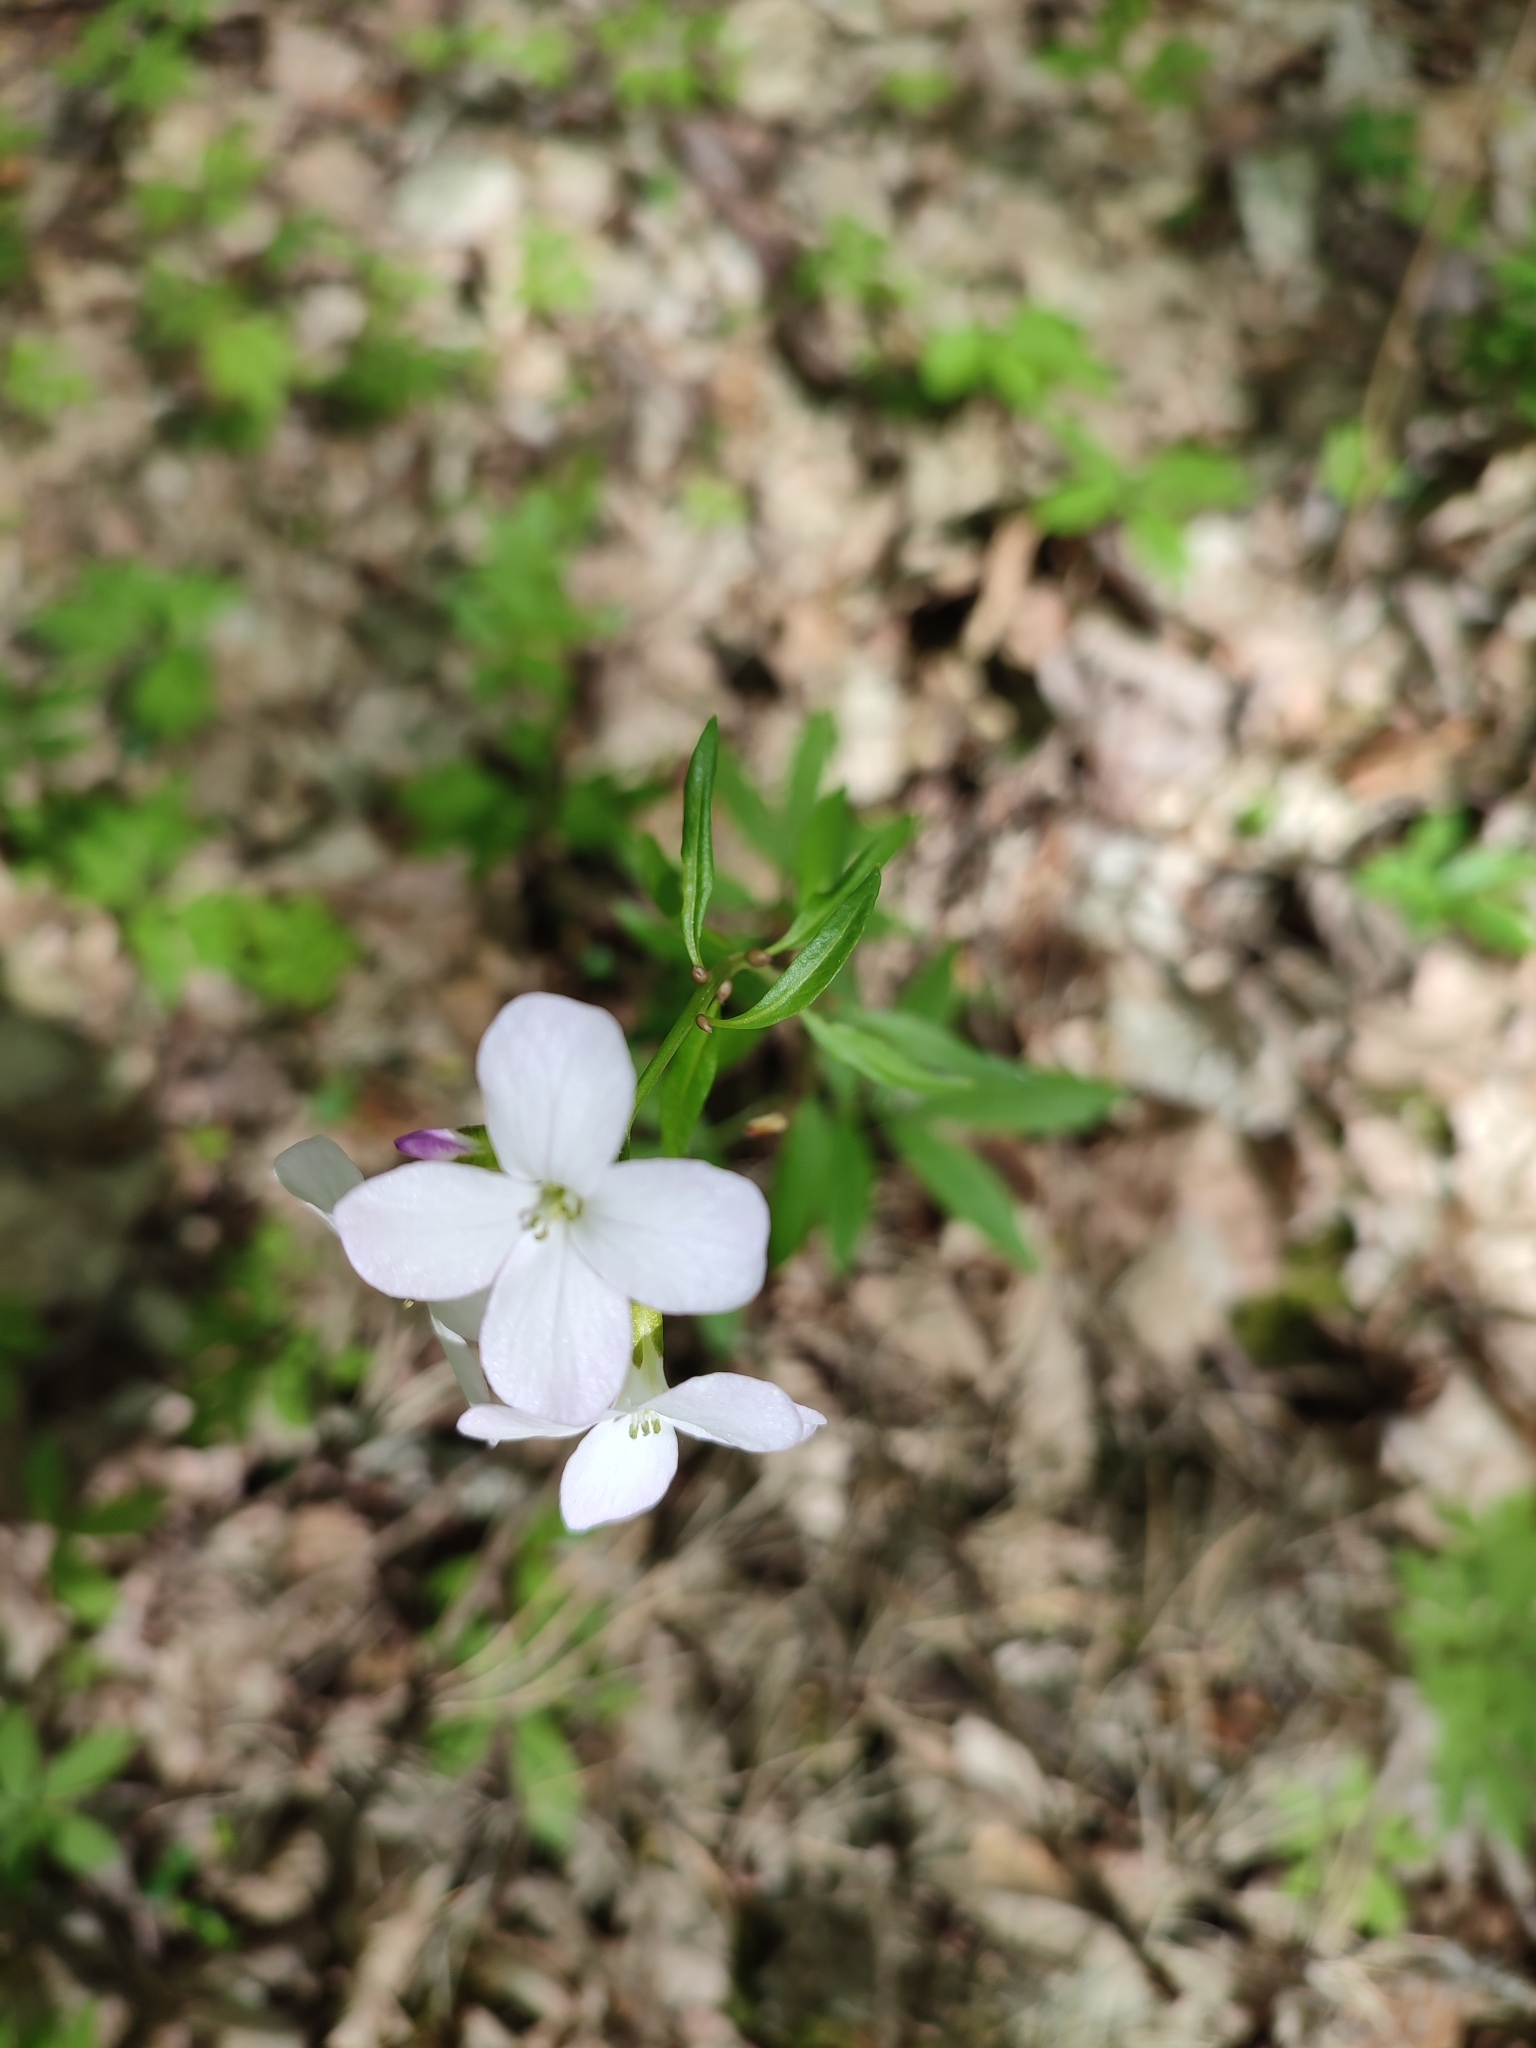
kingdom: Plantae
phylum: Tracheophyta
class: Magnoliopsida
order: Brassicales
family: Brassicaceae
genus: Cardamine
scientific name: Cardamine bulbifera
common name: Coralroot bittercress
